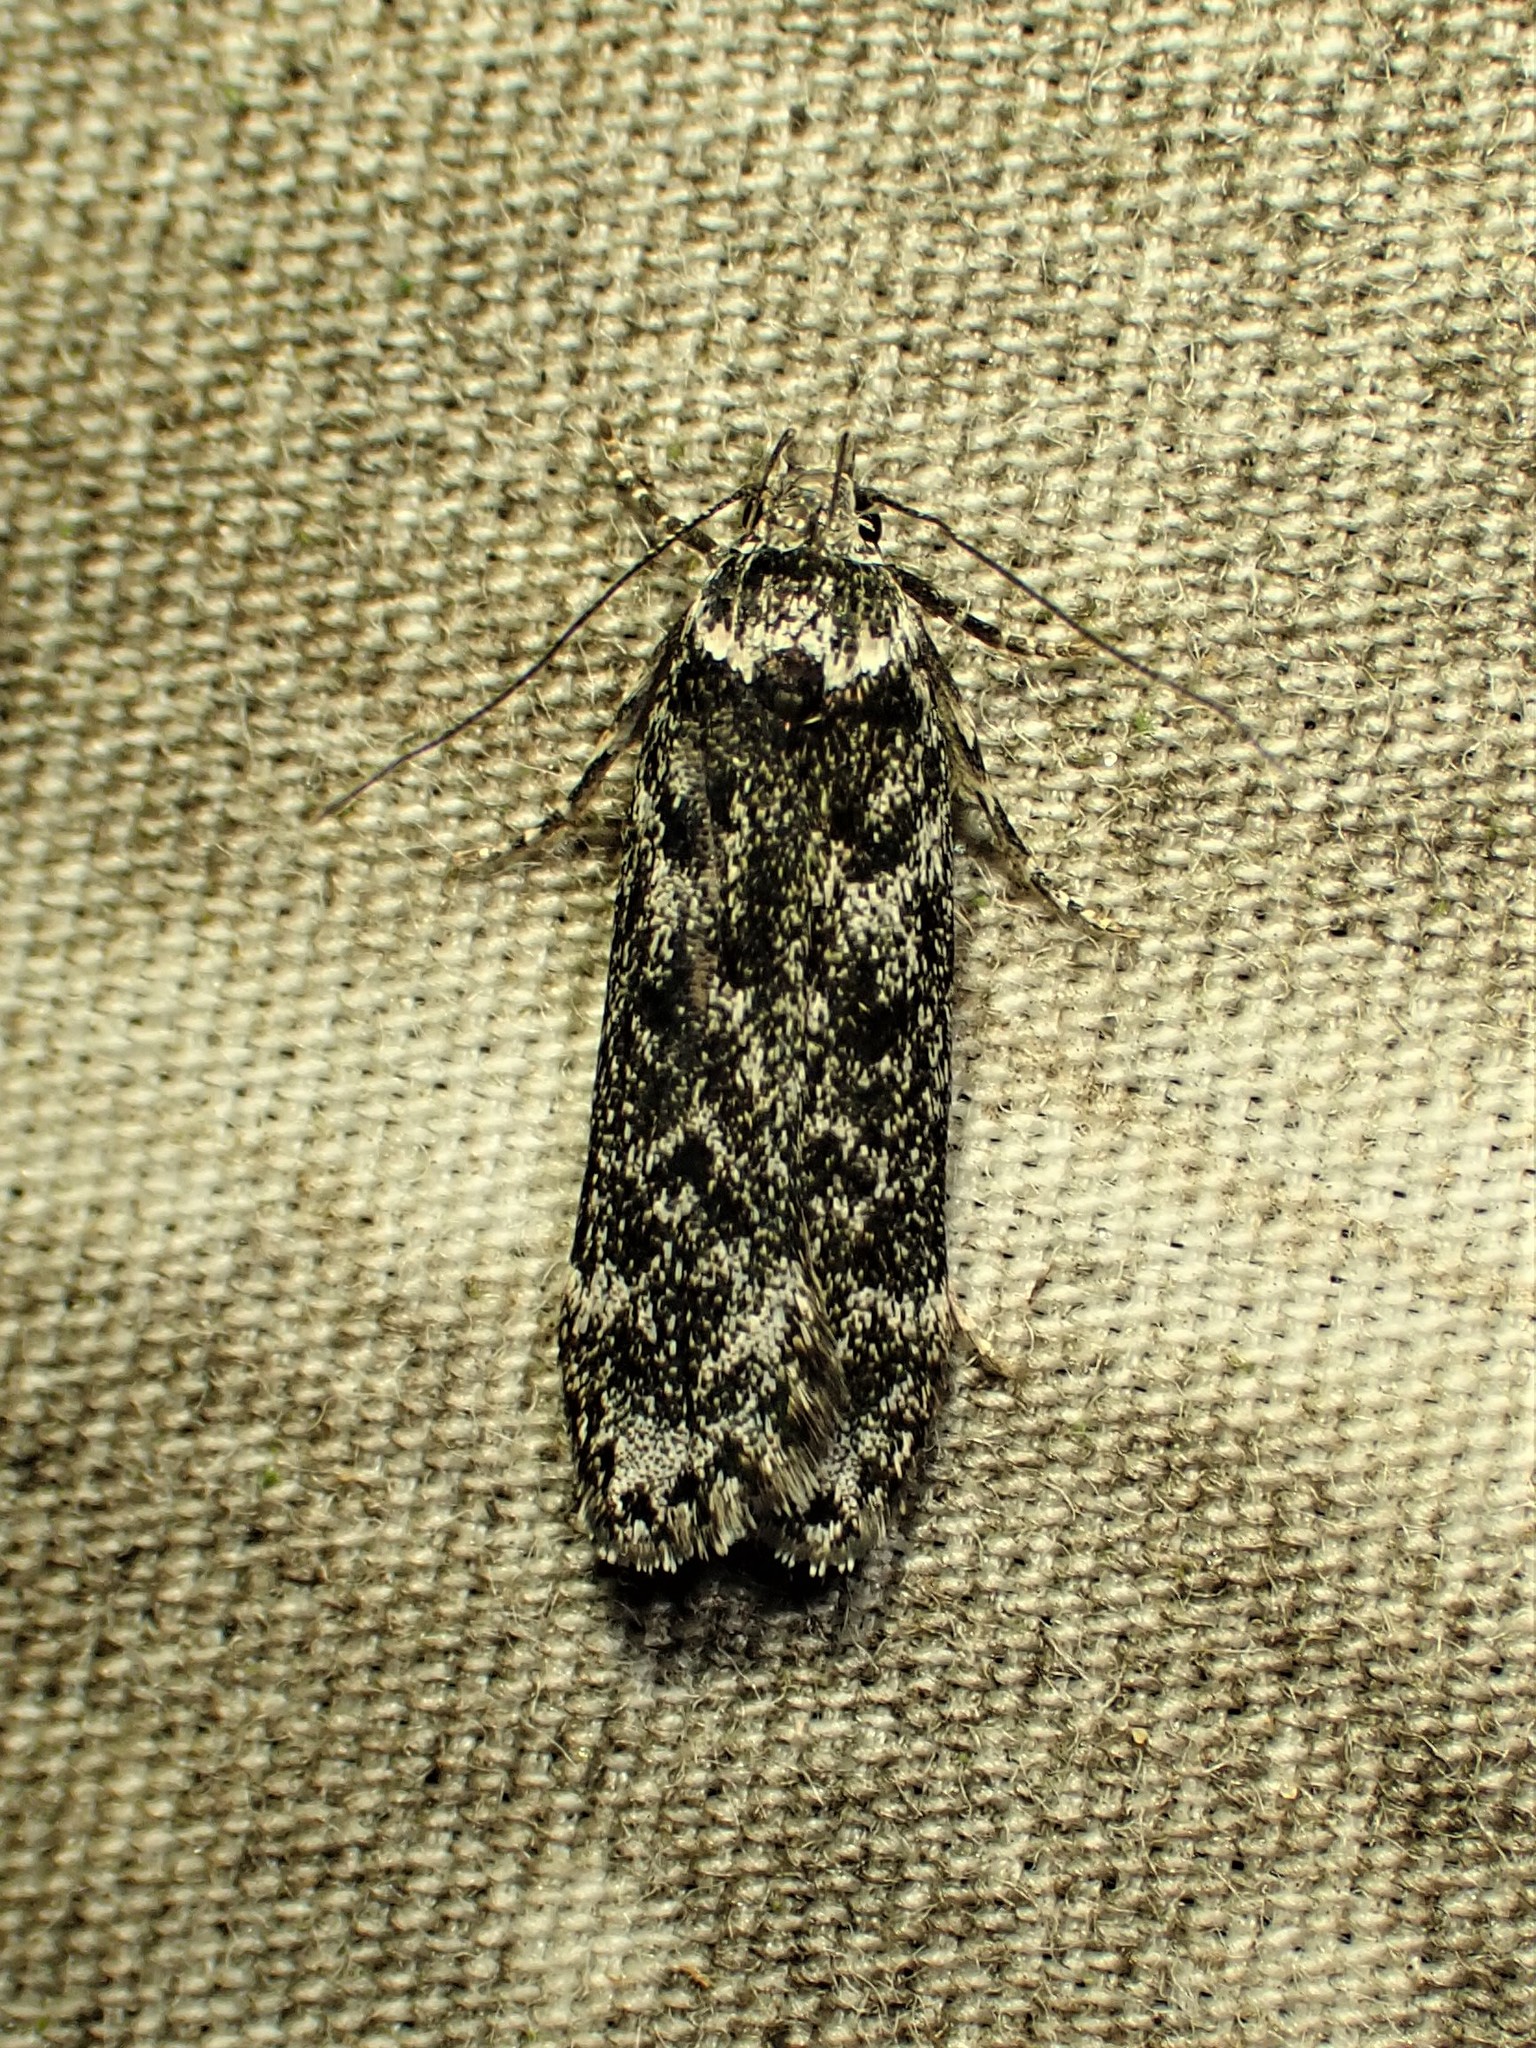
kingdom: Animalia
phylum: Arthropoda
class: Insecta
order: Lepidoptera
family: Gelechiidae
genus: Anacampsis
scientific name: Anacampsis niveopulvella
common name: Pale-headed aspen leafroller moth
